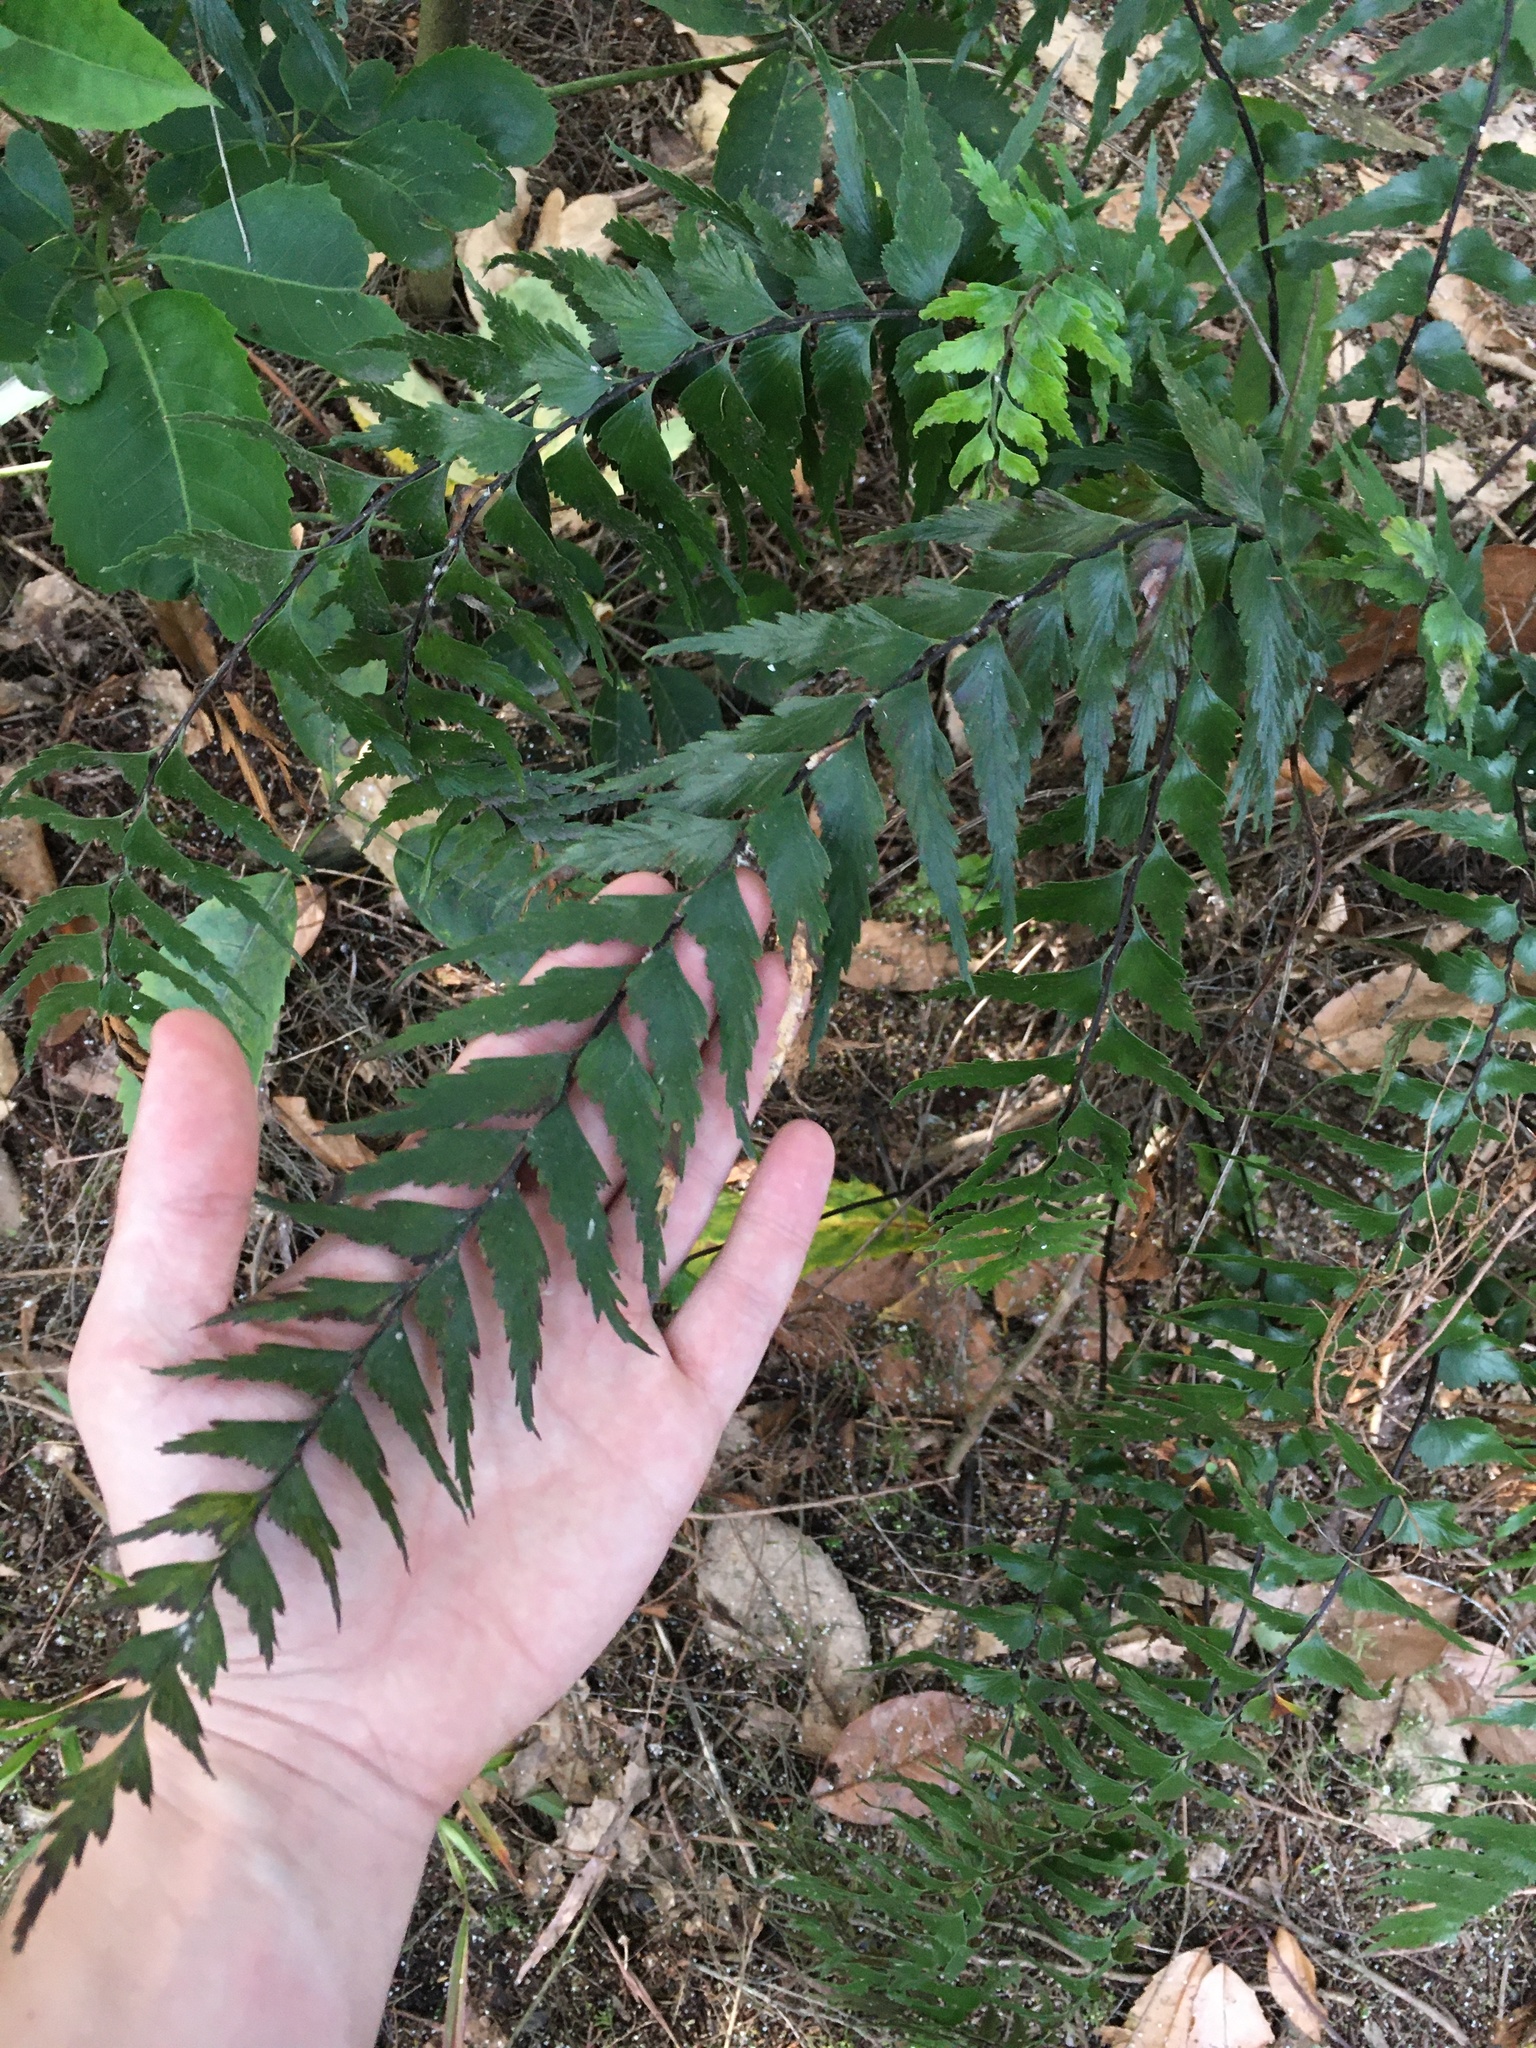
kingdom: Plantae
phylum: Tracheophyta
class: Polypodiopsida
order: Polypodiales
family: Aspleniaceae
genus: Asplenium
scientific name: Asplenium polyodon
